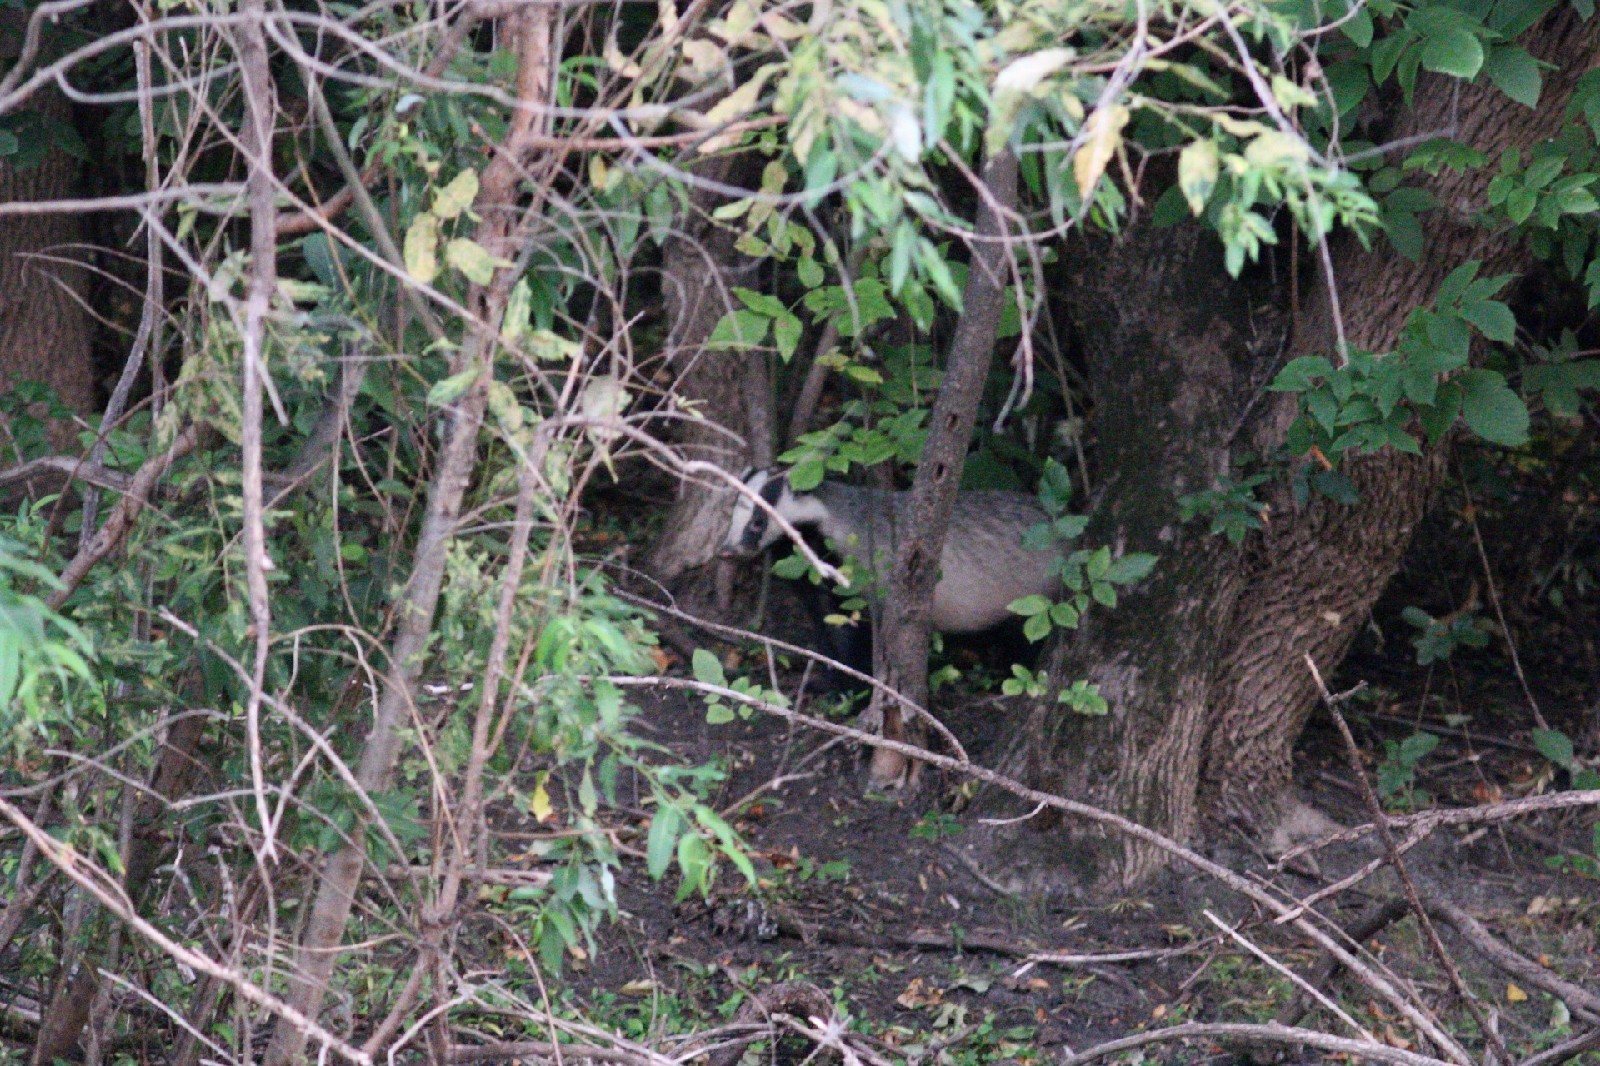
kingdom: Animalia
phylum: Chordata
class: Mammalia
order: Carnivora
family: Mustelidae
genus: Meles
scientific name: Meles leucurus
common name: Asian badger
